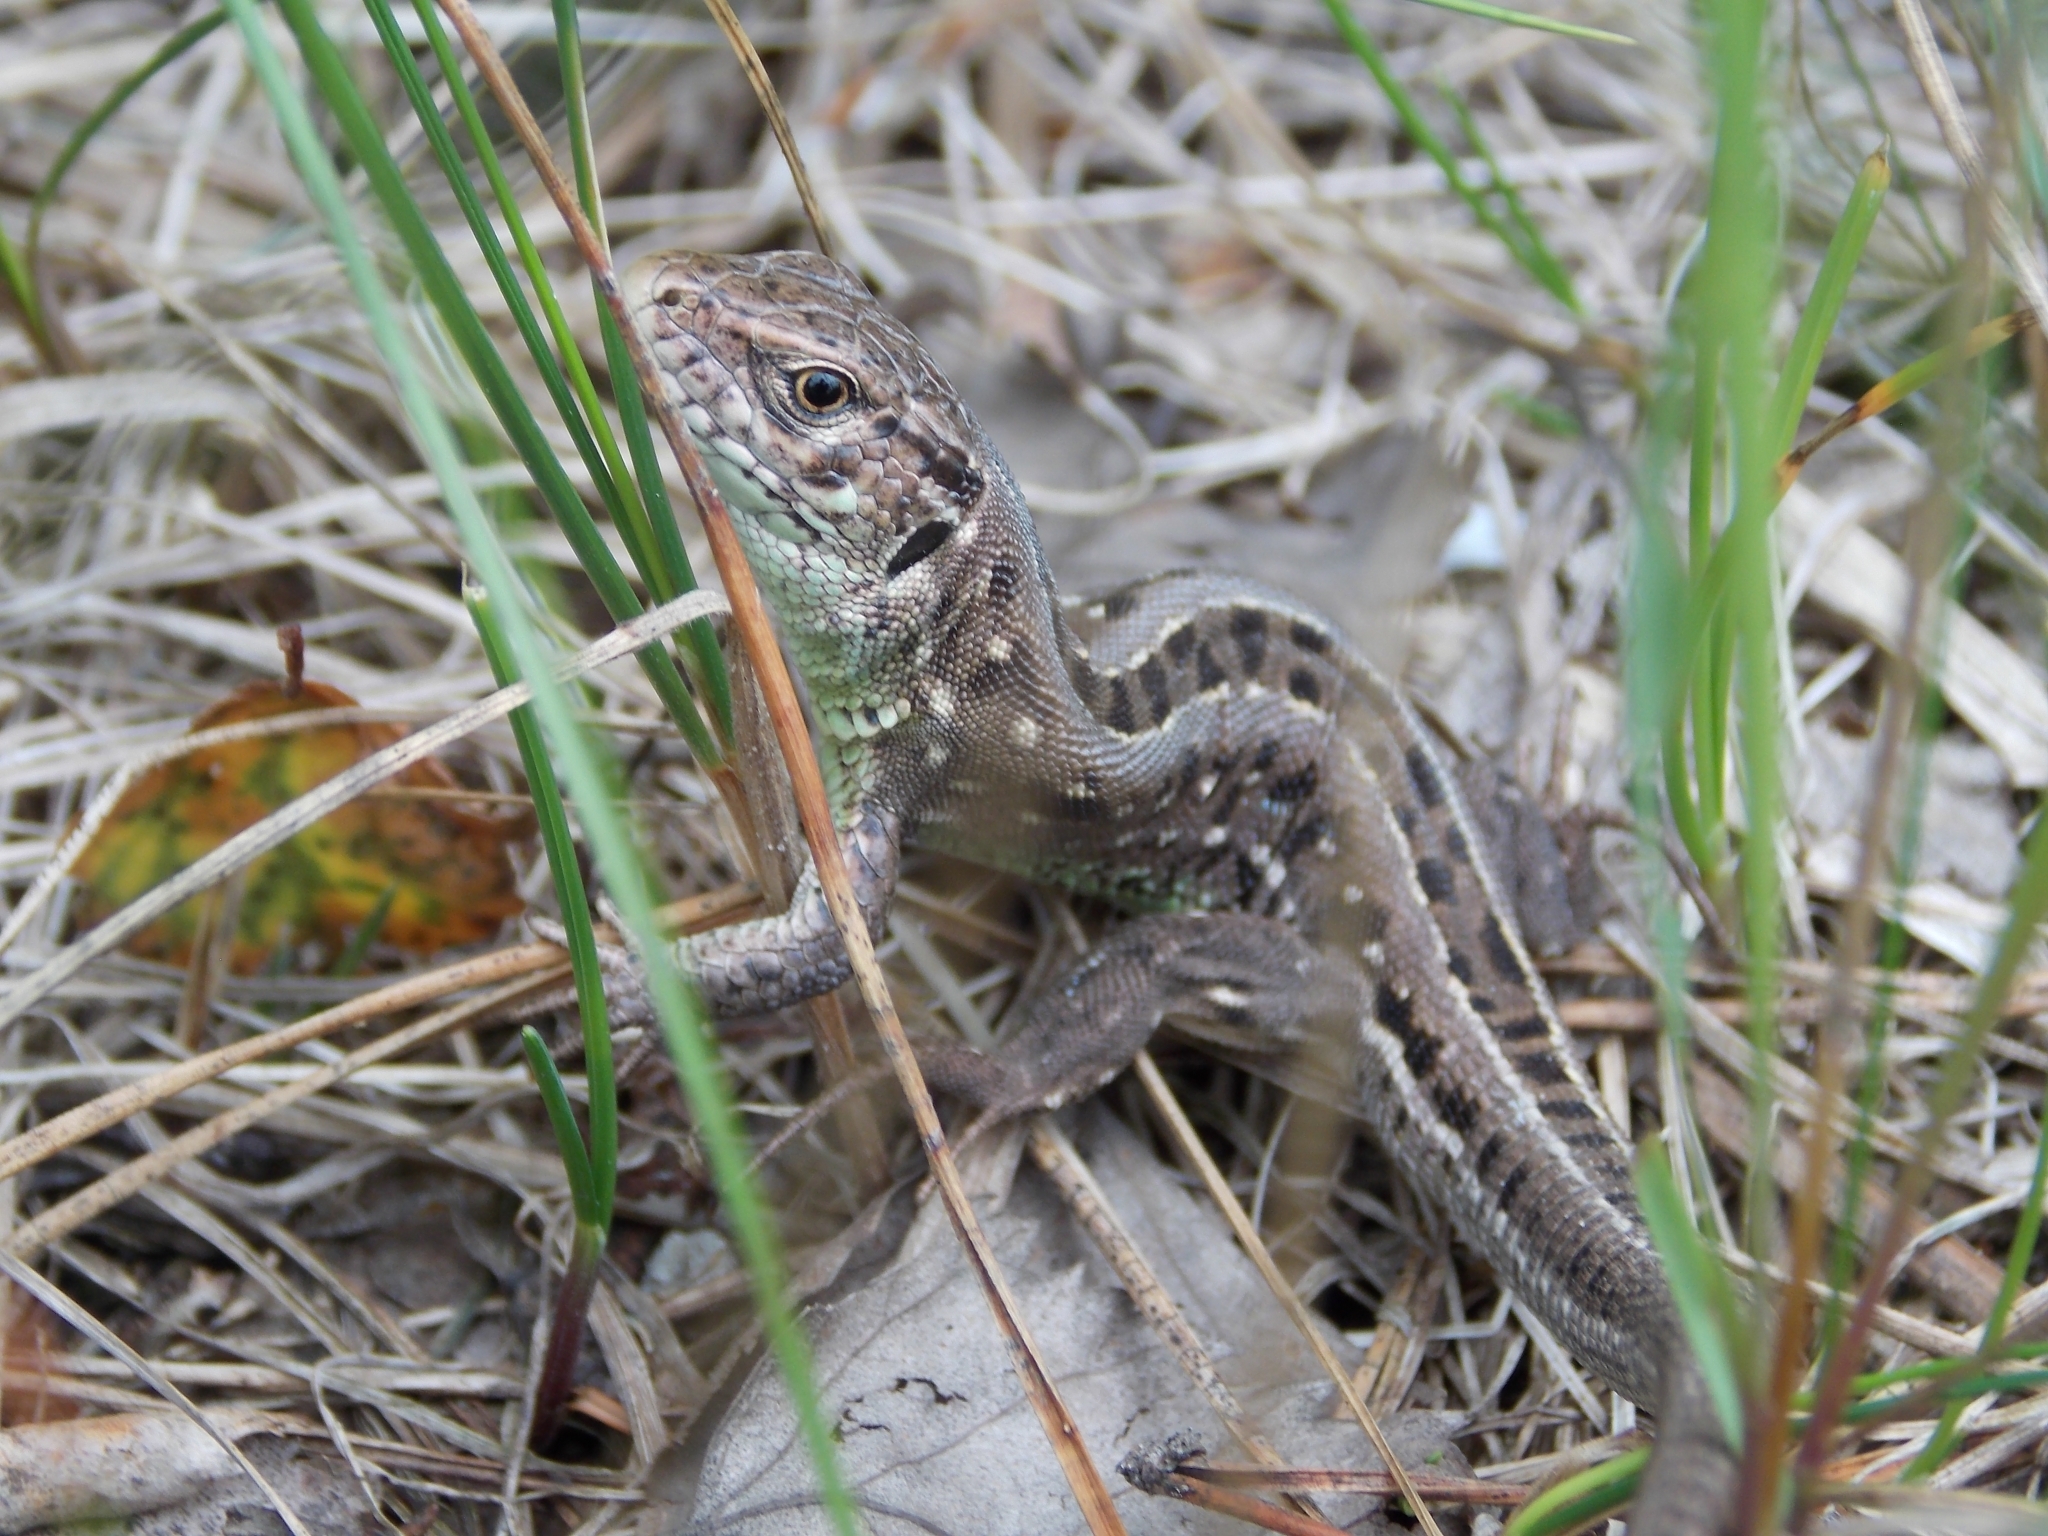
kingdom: Animalia
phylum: Chordata
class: Squamata
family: Lacertidae
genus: Lacerta
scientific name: Lacerta agilis
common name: Sand lizard
